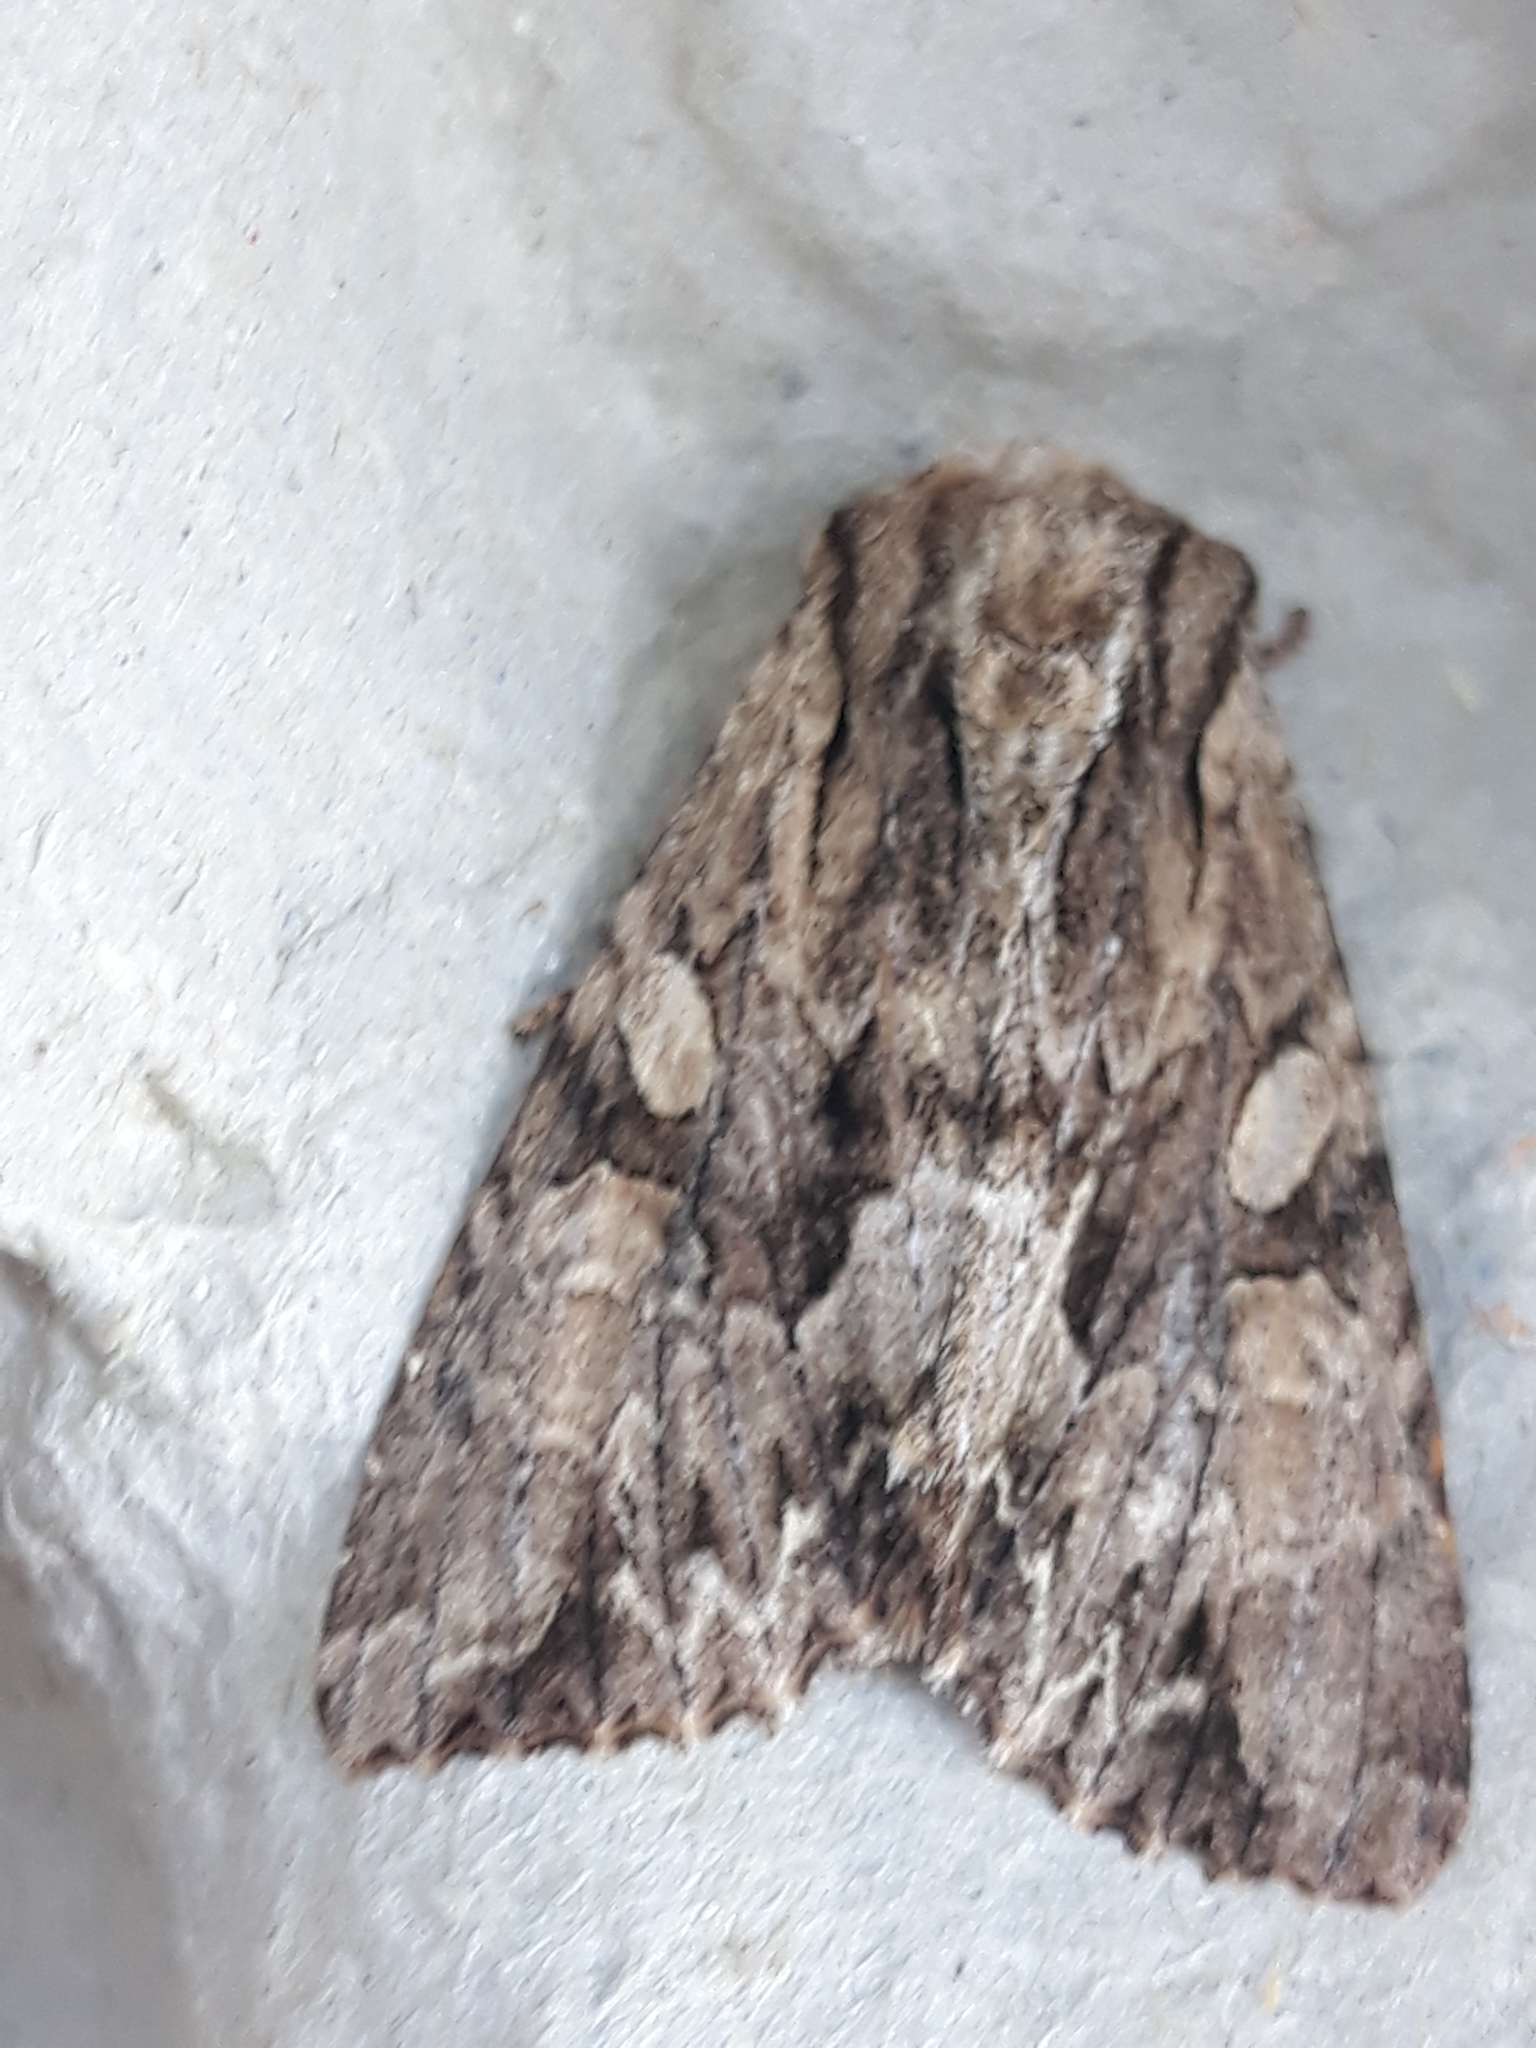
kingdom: Animalia
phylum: Arthropoda
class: Insecta
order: Lepidoptera
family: Noctuidae
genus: Apamea
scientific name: Apamea monoglypha
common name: Dark arches
